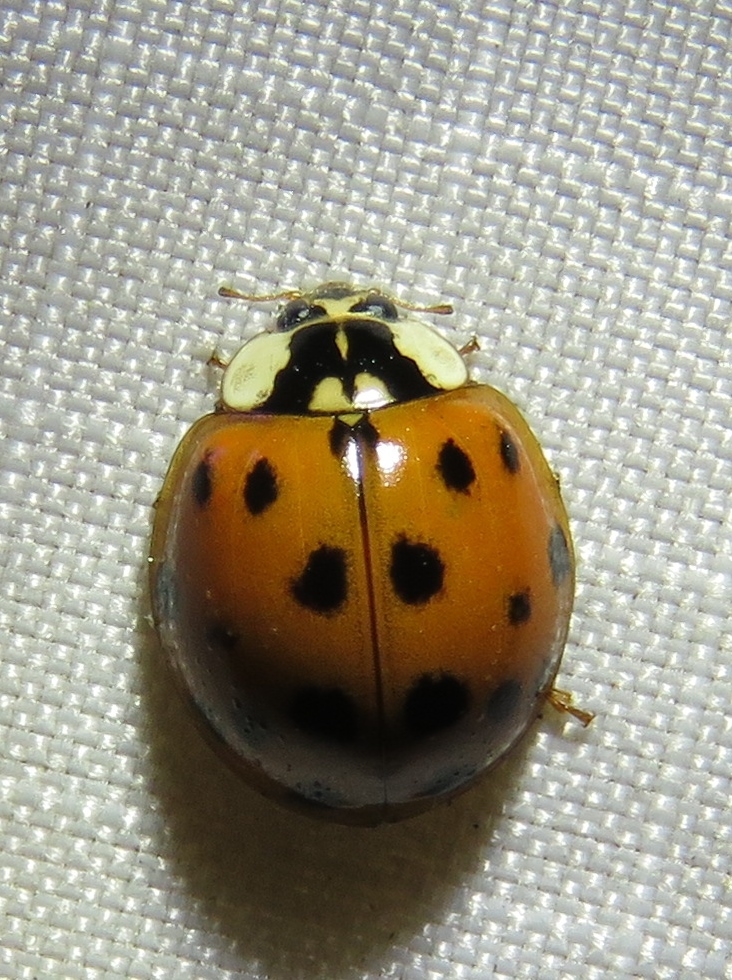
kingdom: Animalia
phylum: Arthropoda
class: Insecta
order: Coleoptera
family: Coccinellidae
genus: Harmonia
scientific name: Harmonia axyridis
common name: Harlequin ladybird
